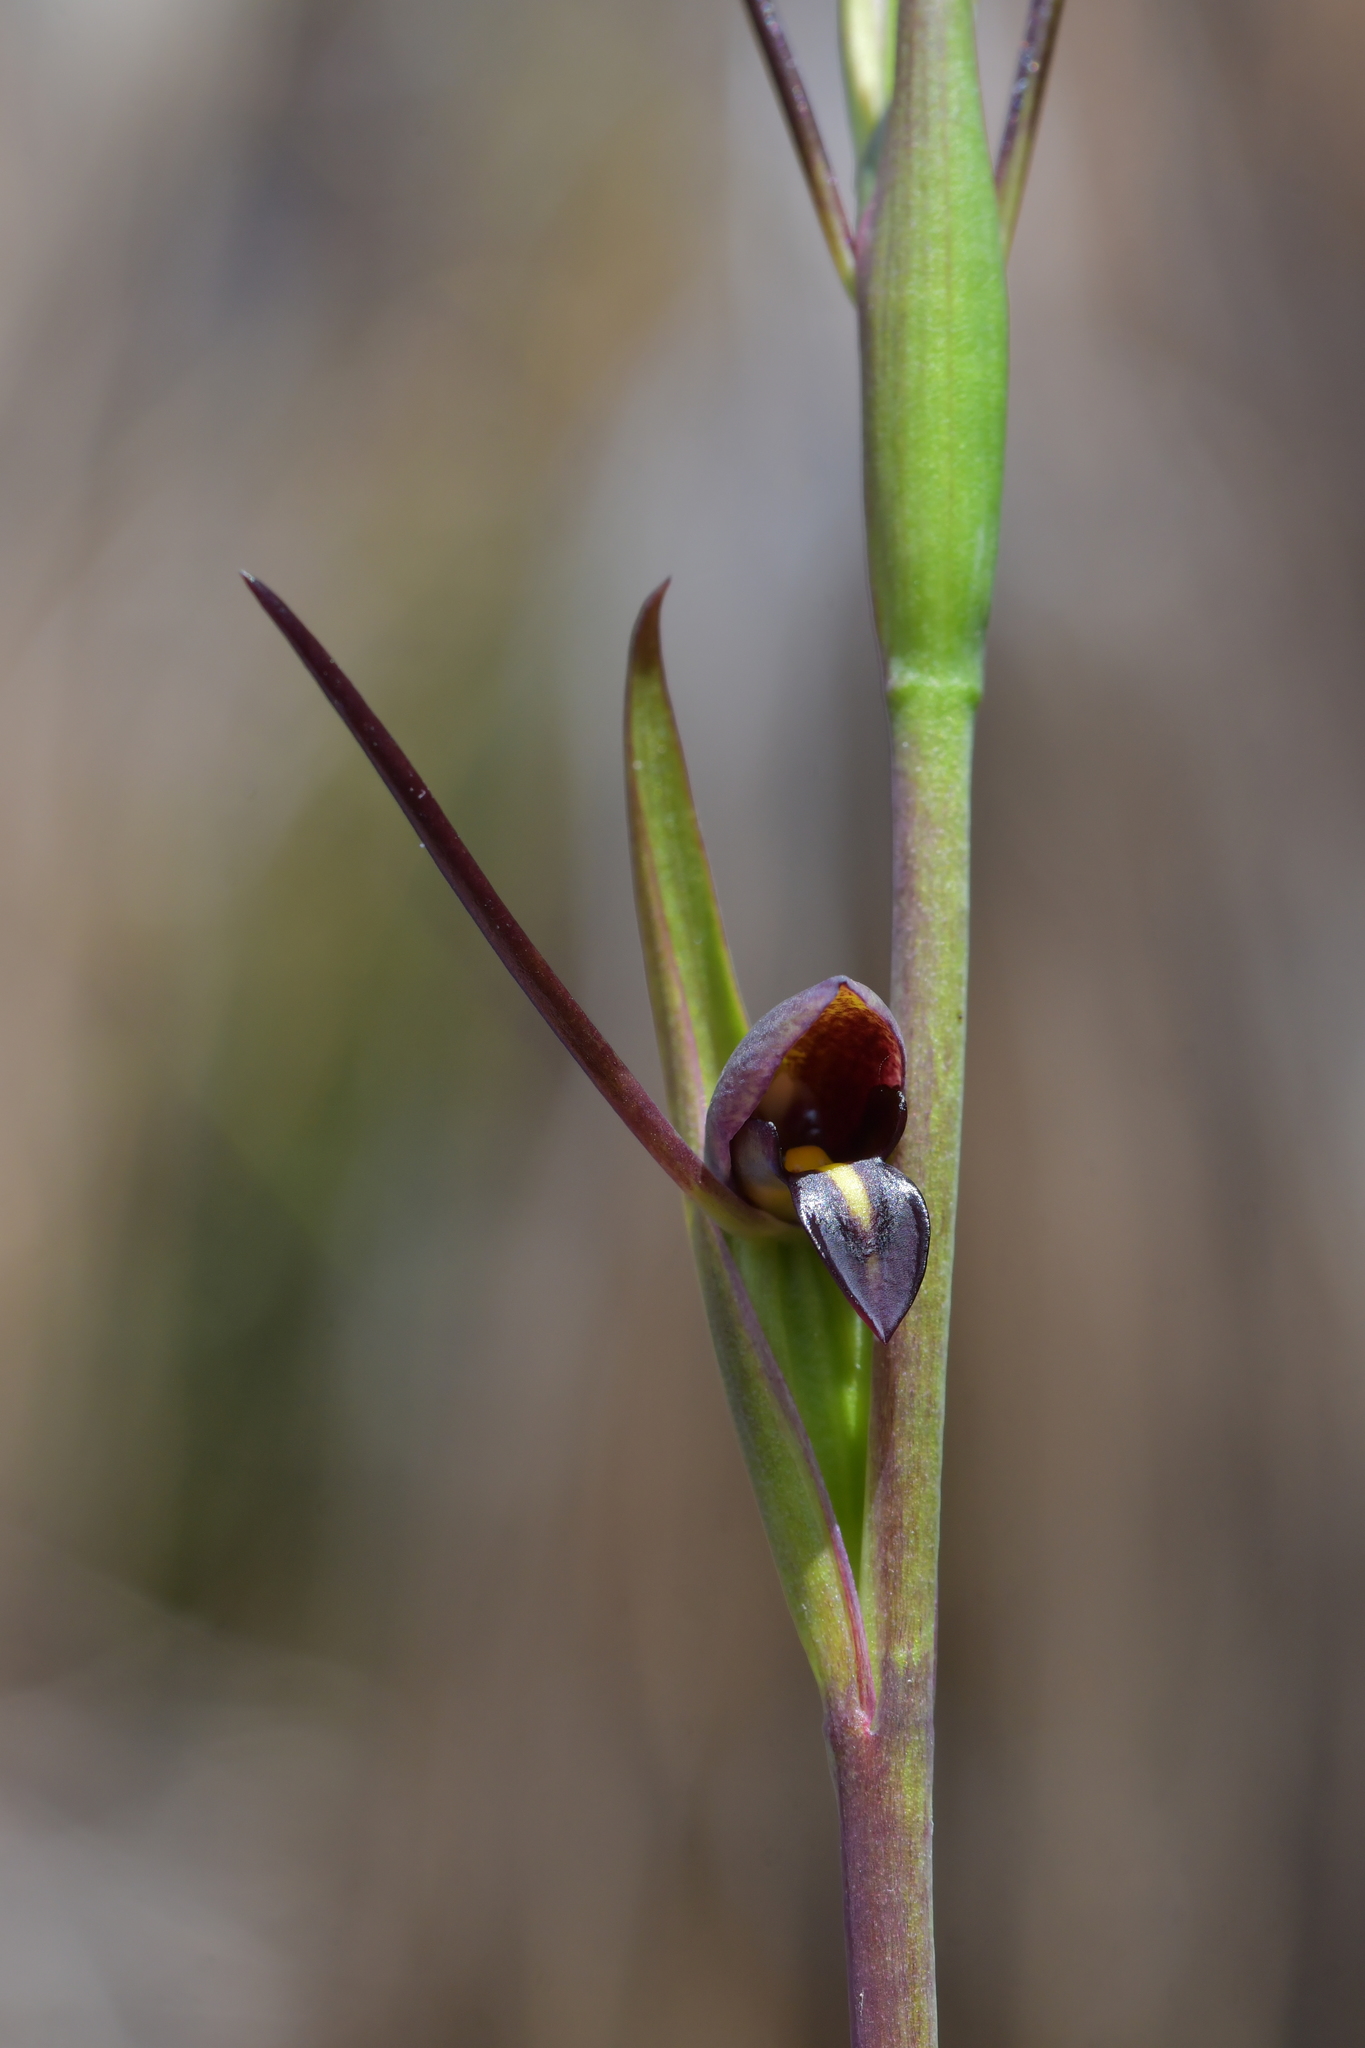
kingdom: Plantae
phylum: Tracheophyta
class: Liliopsida
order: Asparagales
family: Orchidaceae
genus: Orthoceras
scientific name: Orthoceras novae-zeelandiae
